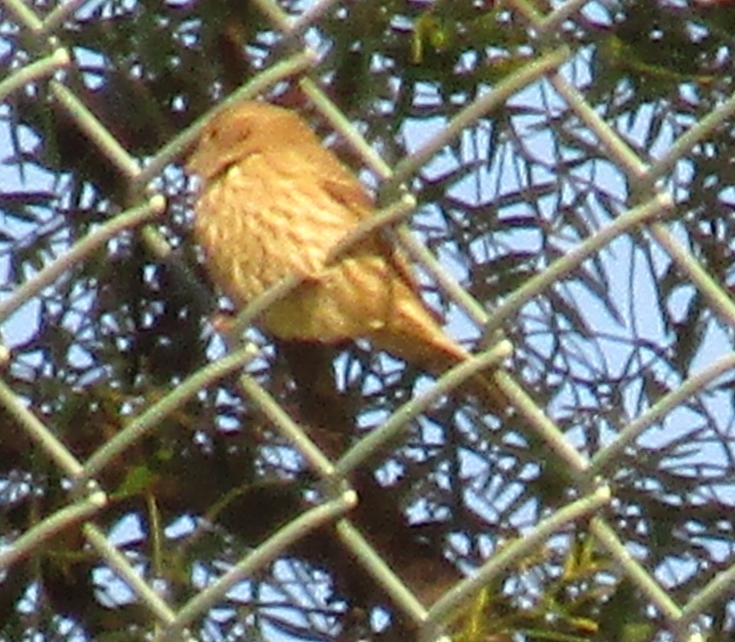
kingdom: Animalia
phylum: Chordata
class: Aves
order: Passeriformes
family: Fringillidae
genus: Haemorhous
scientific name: Haemorhous mexicanus
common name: House finch
